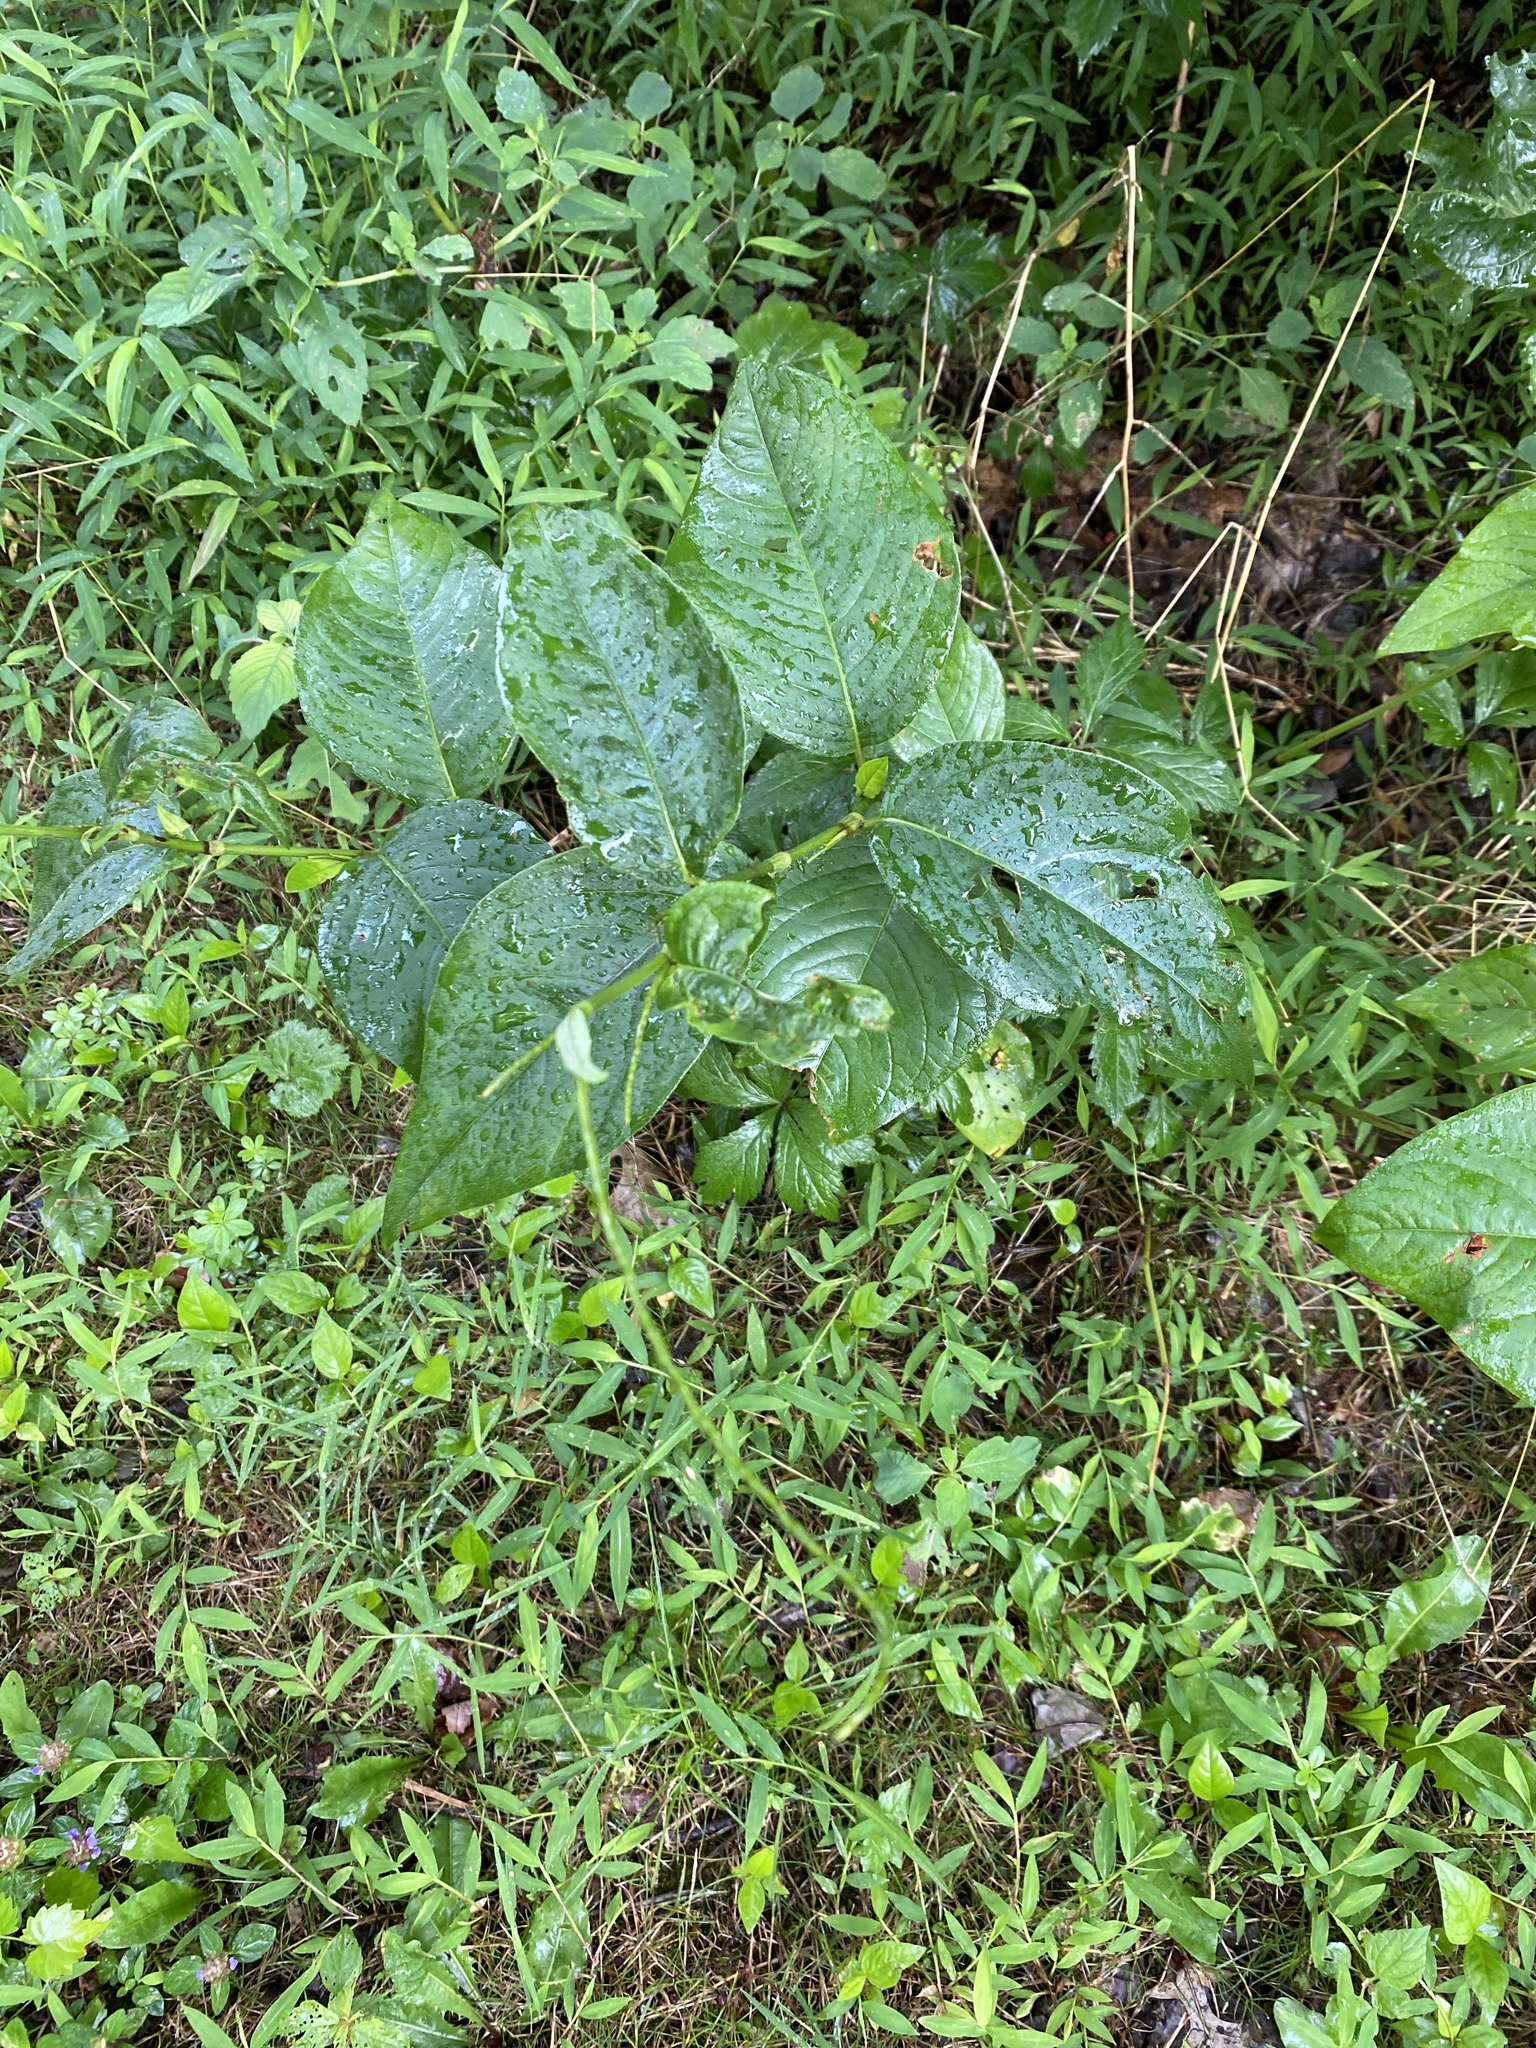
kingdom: Plantae
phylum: Tracheophyta
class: Magnoliopsida
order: Caryophyllales
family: Polygonaceae
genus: Persicaria
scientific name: Persicaria virginiana
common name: Jumpseed
